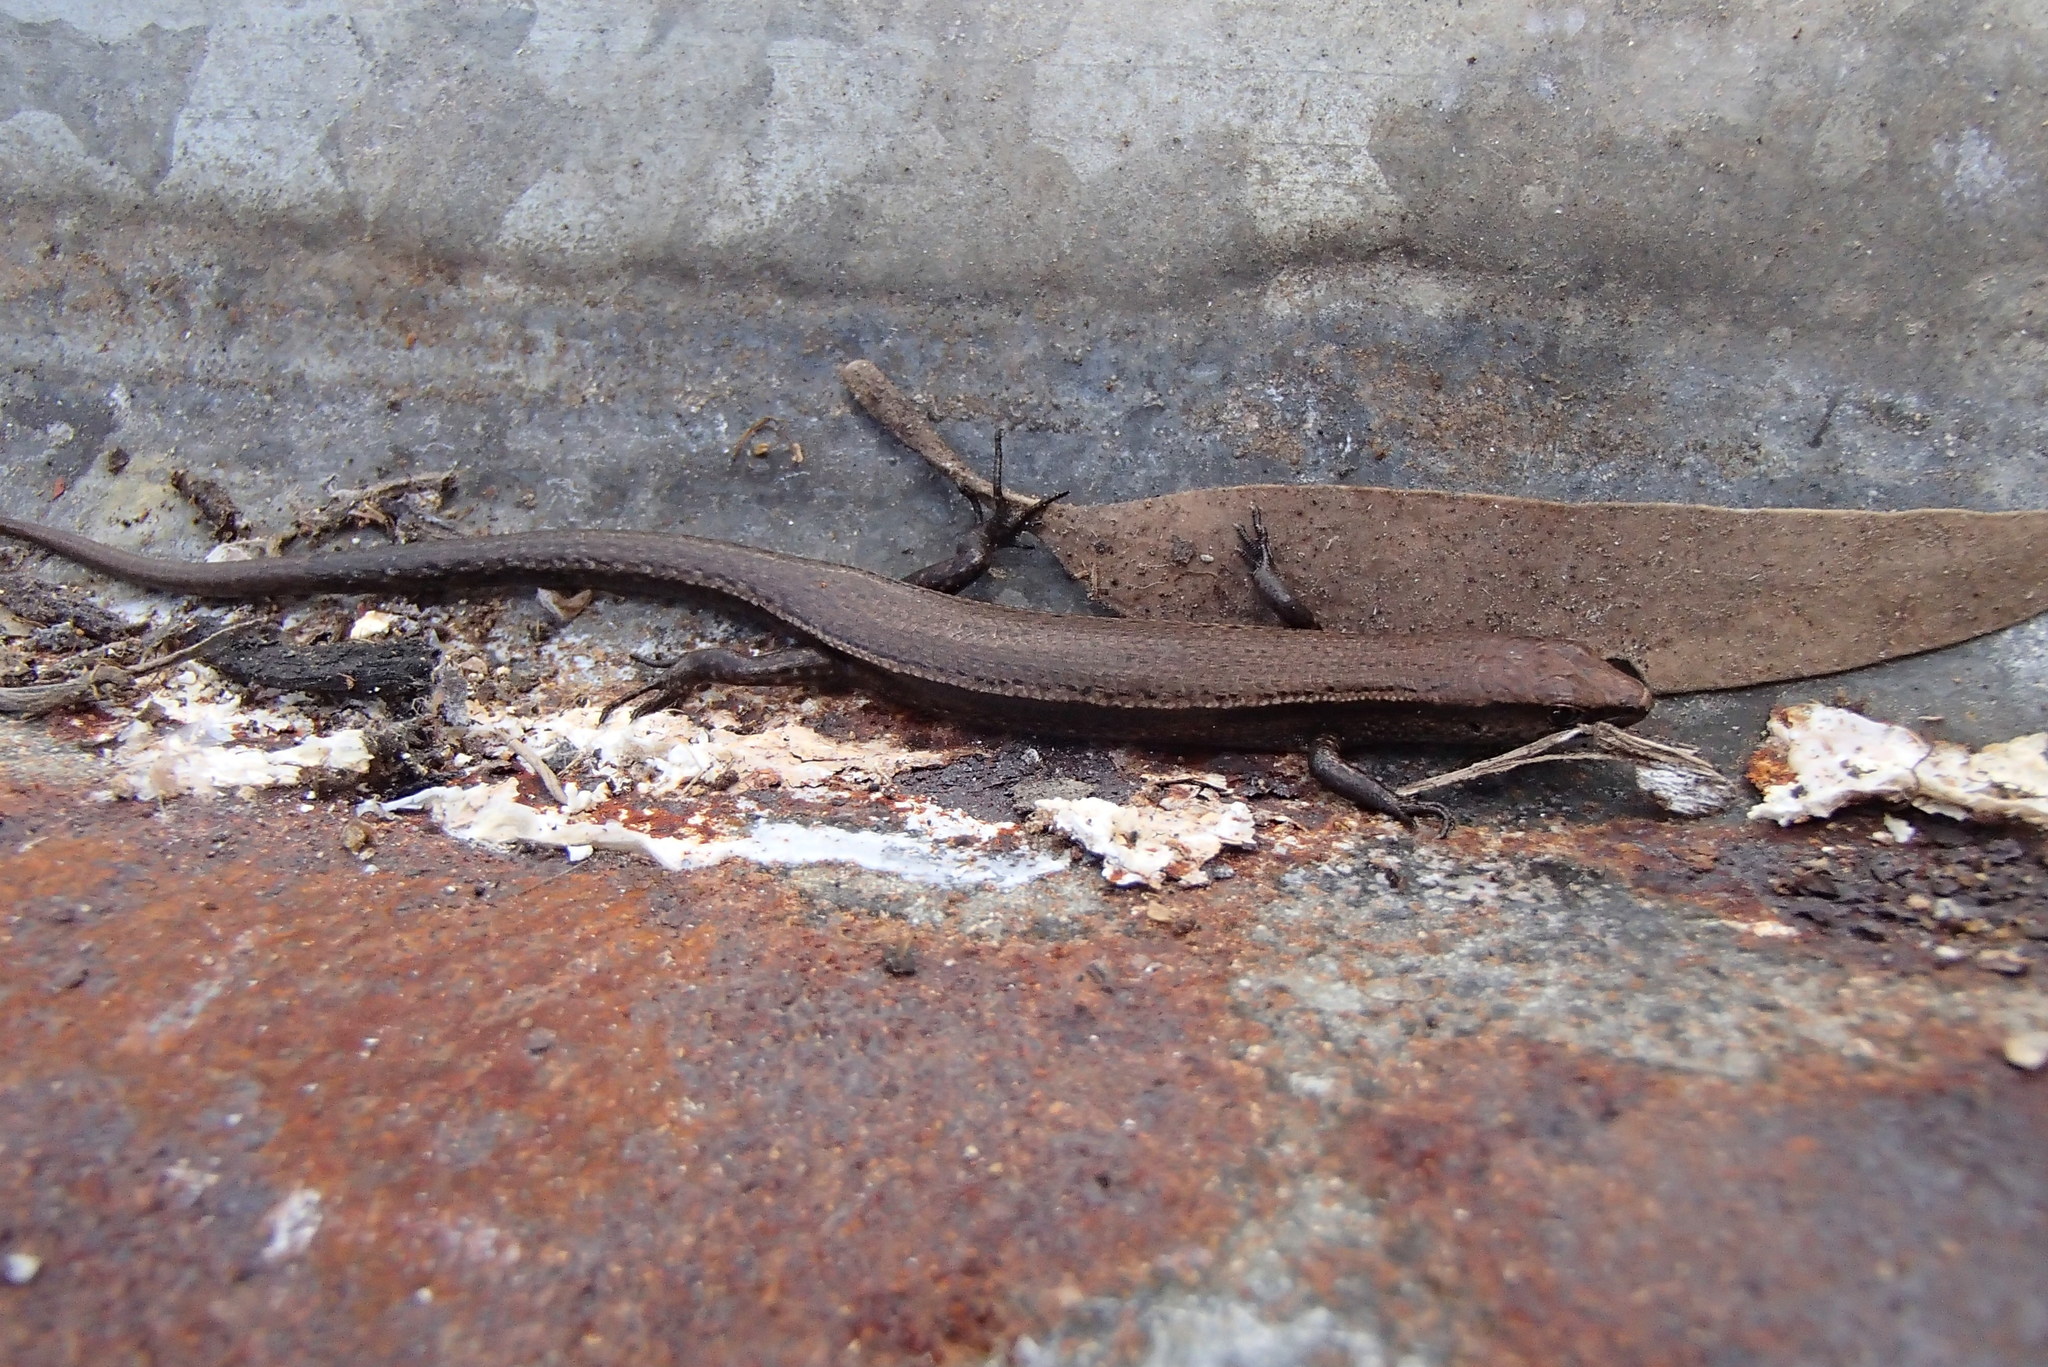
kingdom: Animalia
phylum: Chordata
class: Squamata
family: Scincidae
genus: Lampropholis
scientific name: Lampropholis delicata
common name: Plague skink
